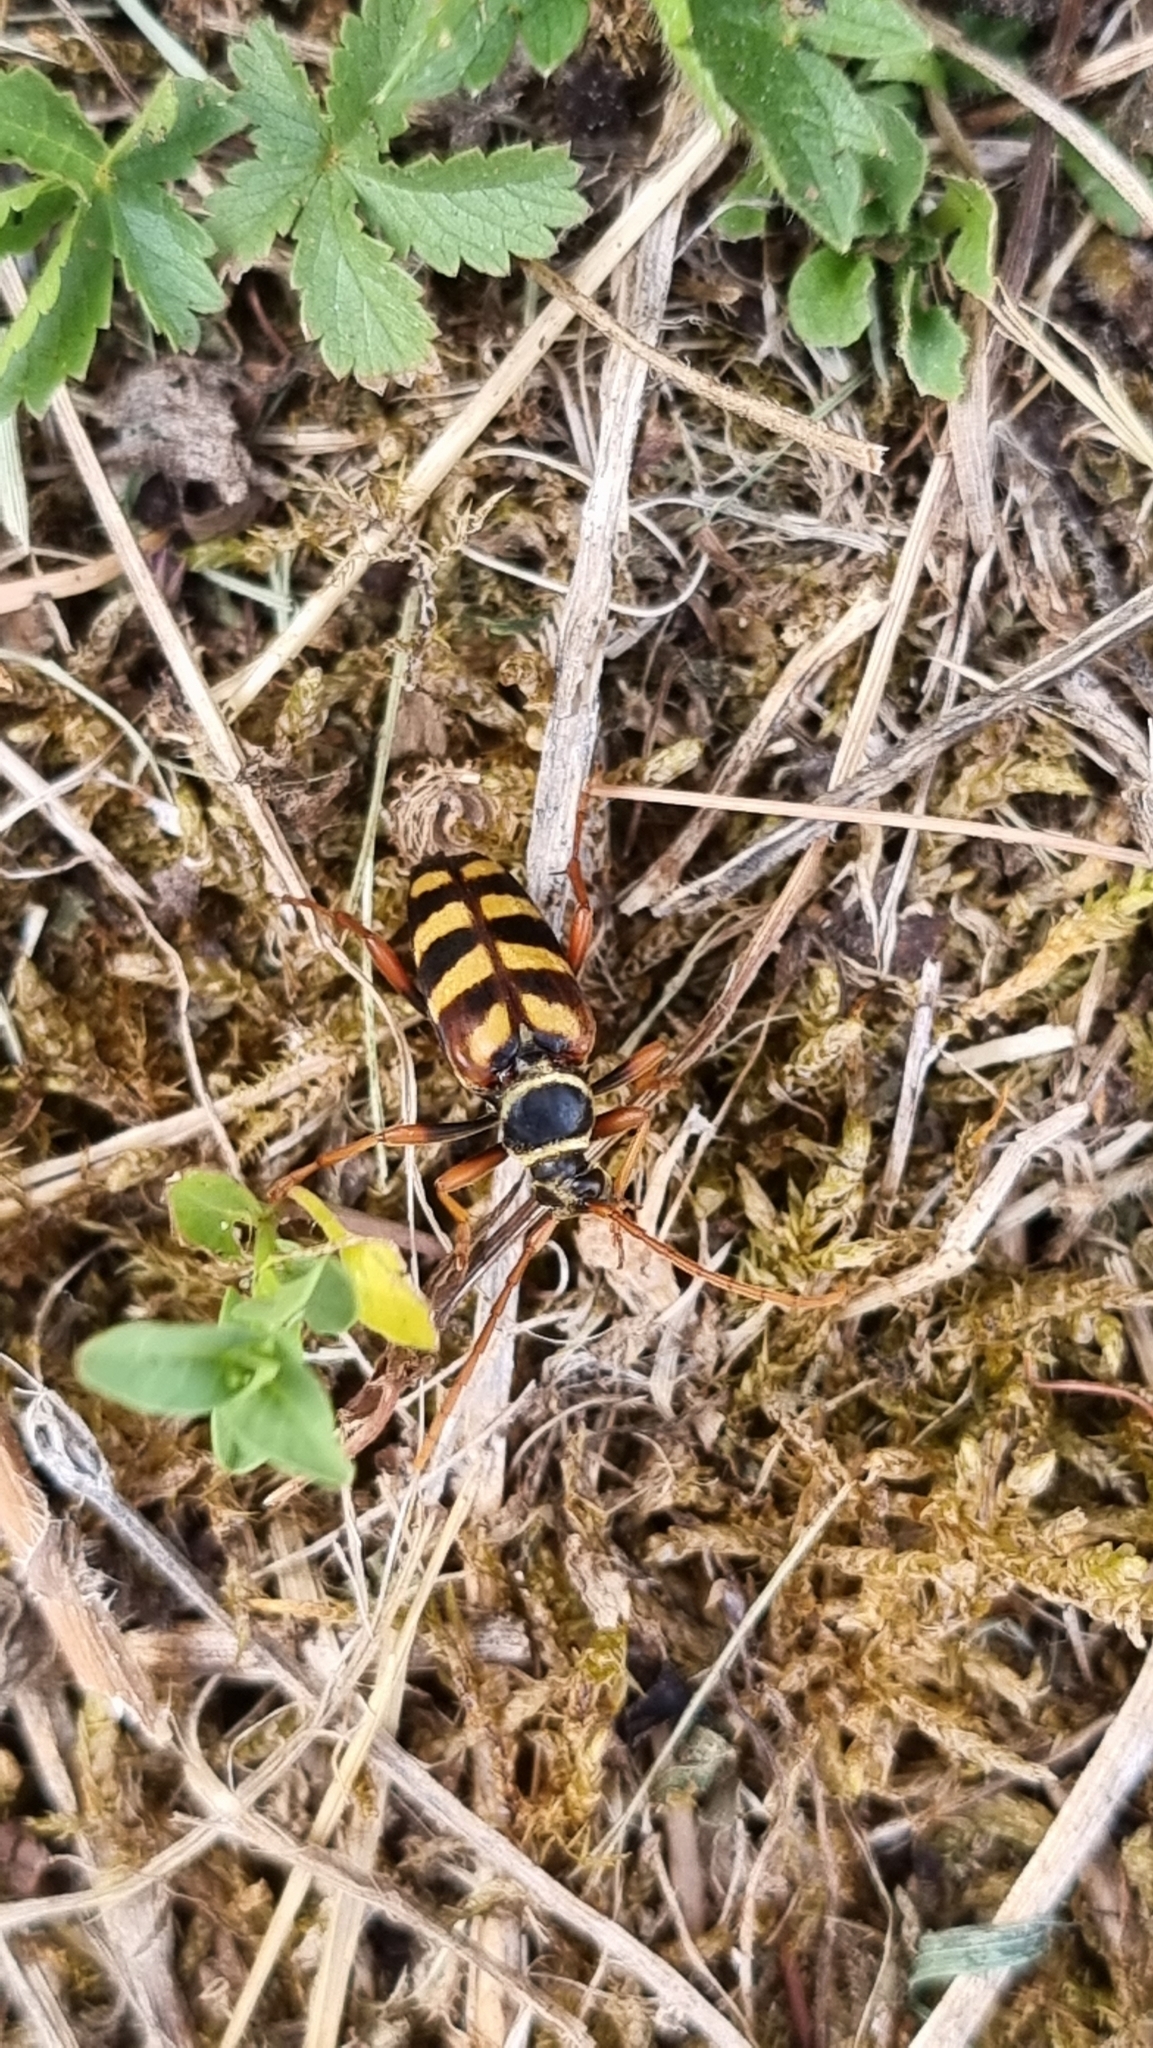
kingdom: Animalia
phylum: Arthropoda
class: Insecta
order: Coleoptera
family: Cerambycidae
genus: Leptura
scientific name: Leptura aurulenta
